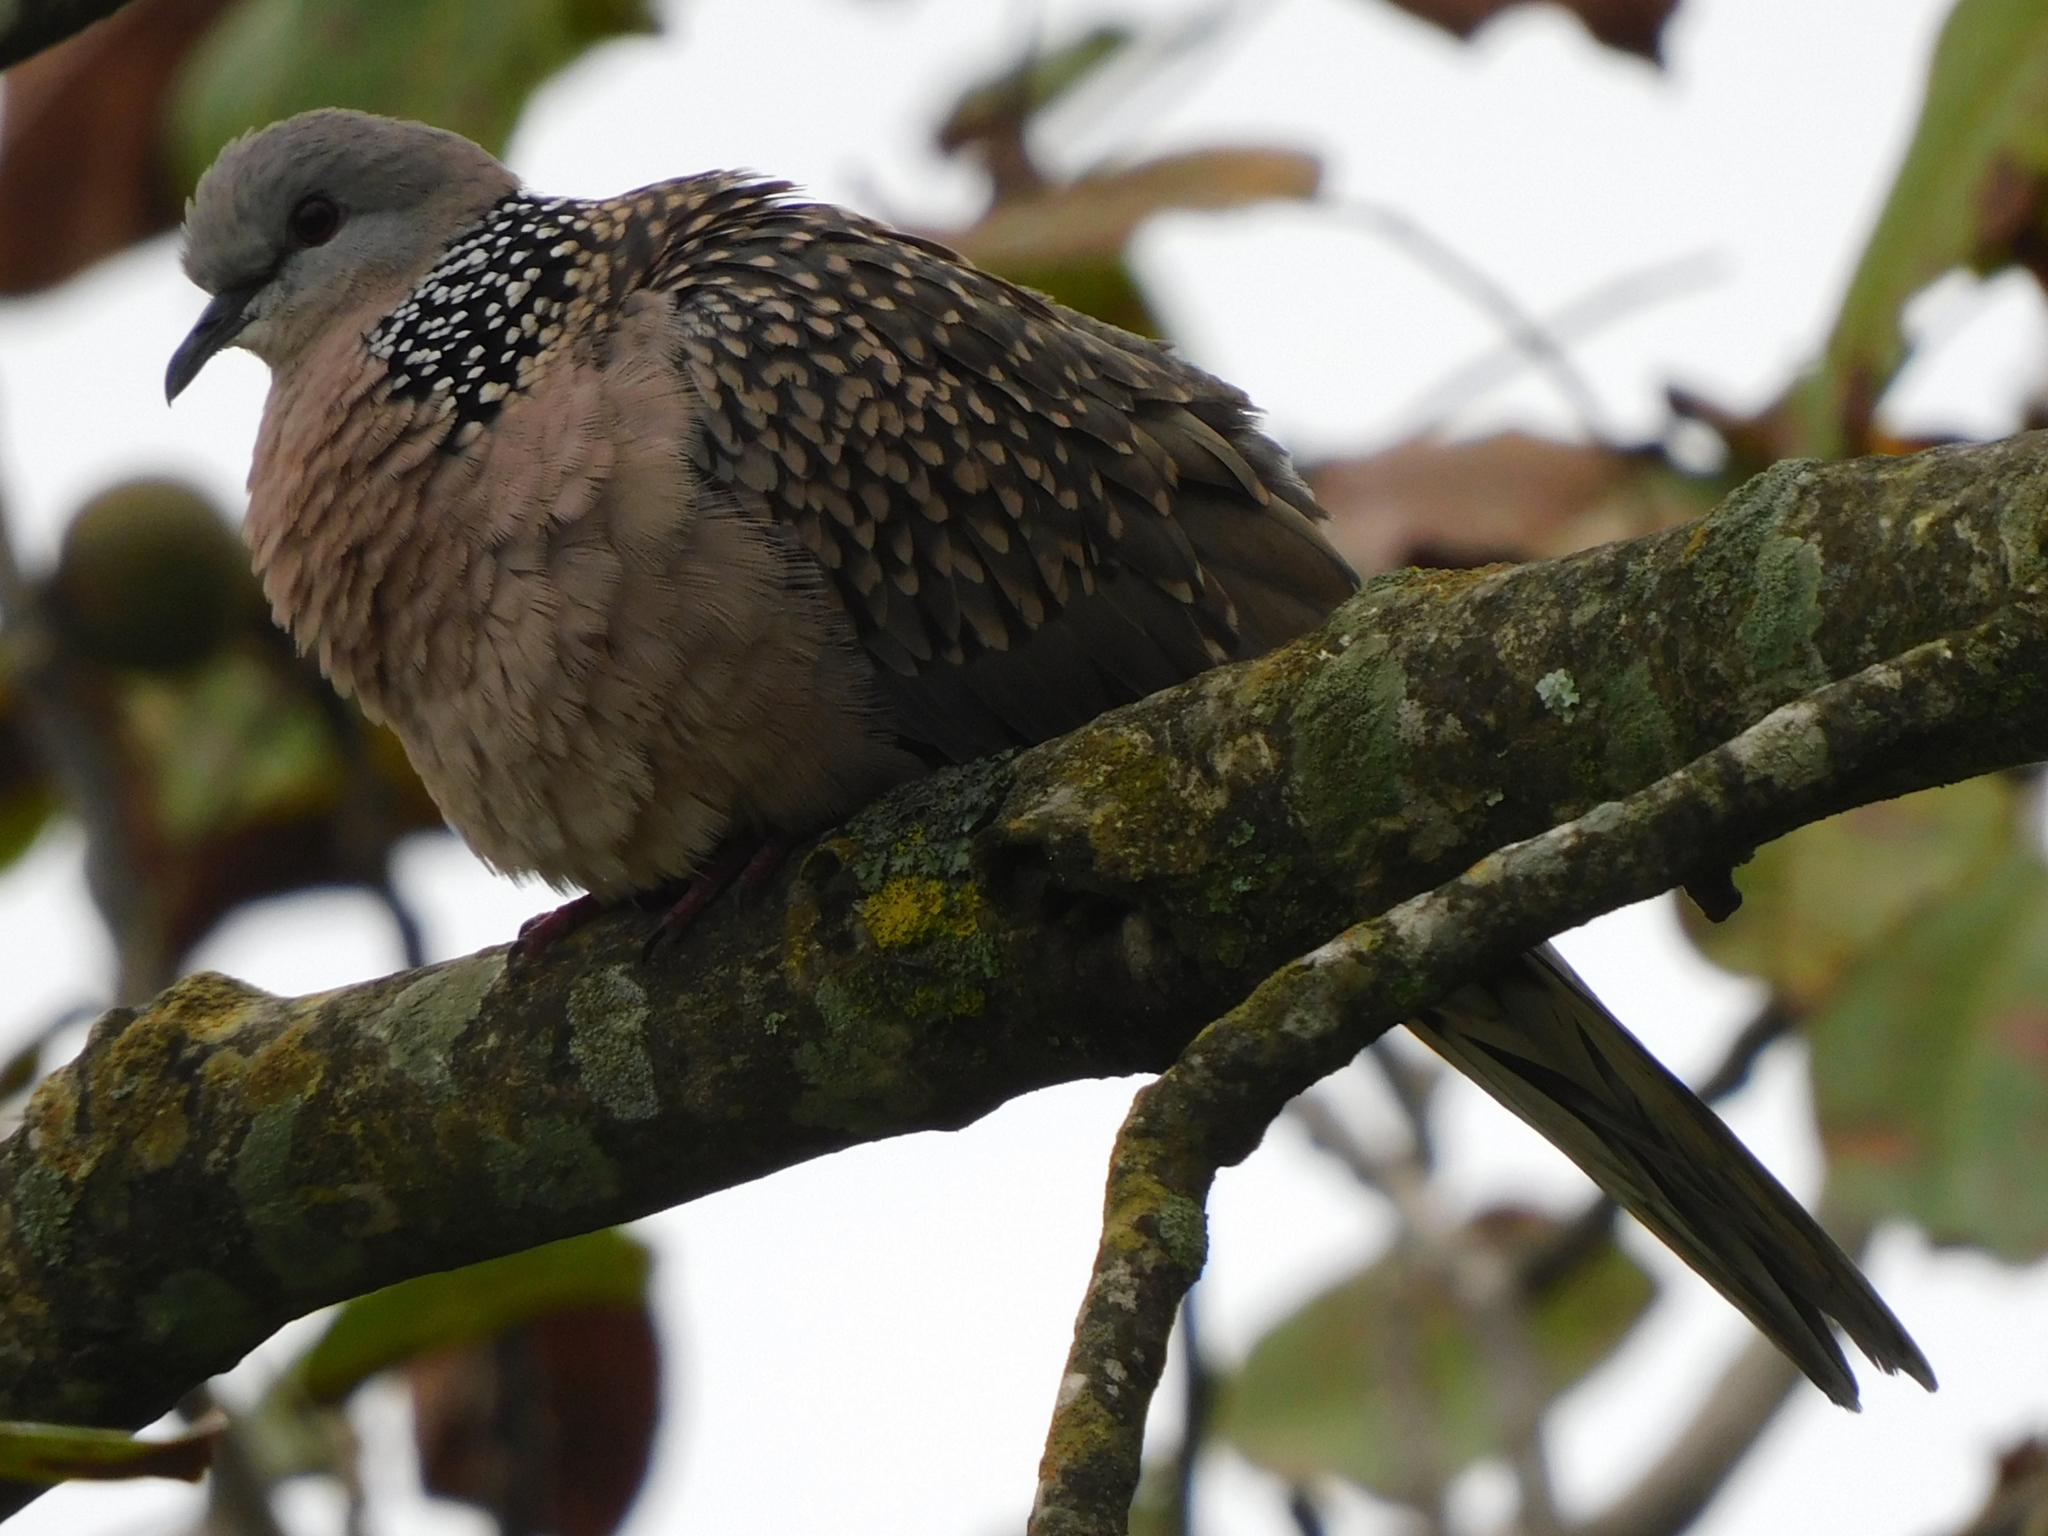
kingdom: Animalia
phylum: Chordata
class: Aves
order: Columbiformes
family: Columbidae
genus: Spilopelia
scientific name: Spilopelia chinensis
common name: Spotted dove
